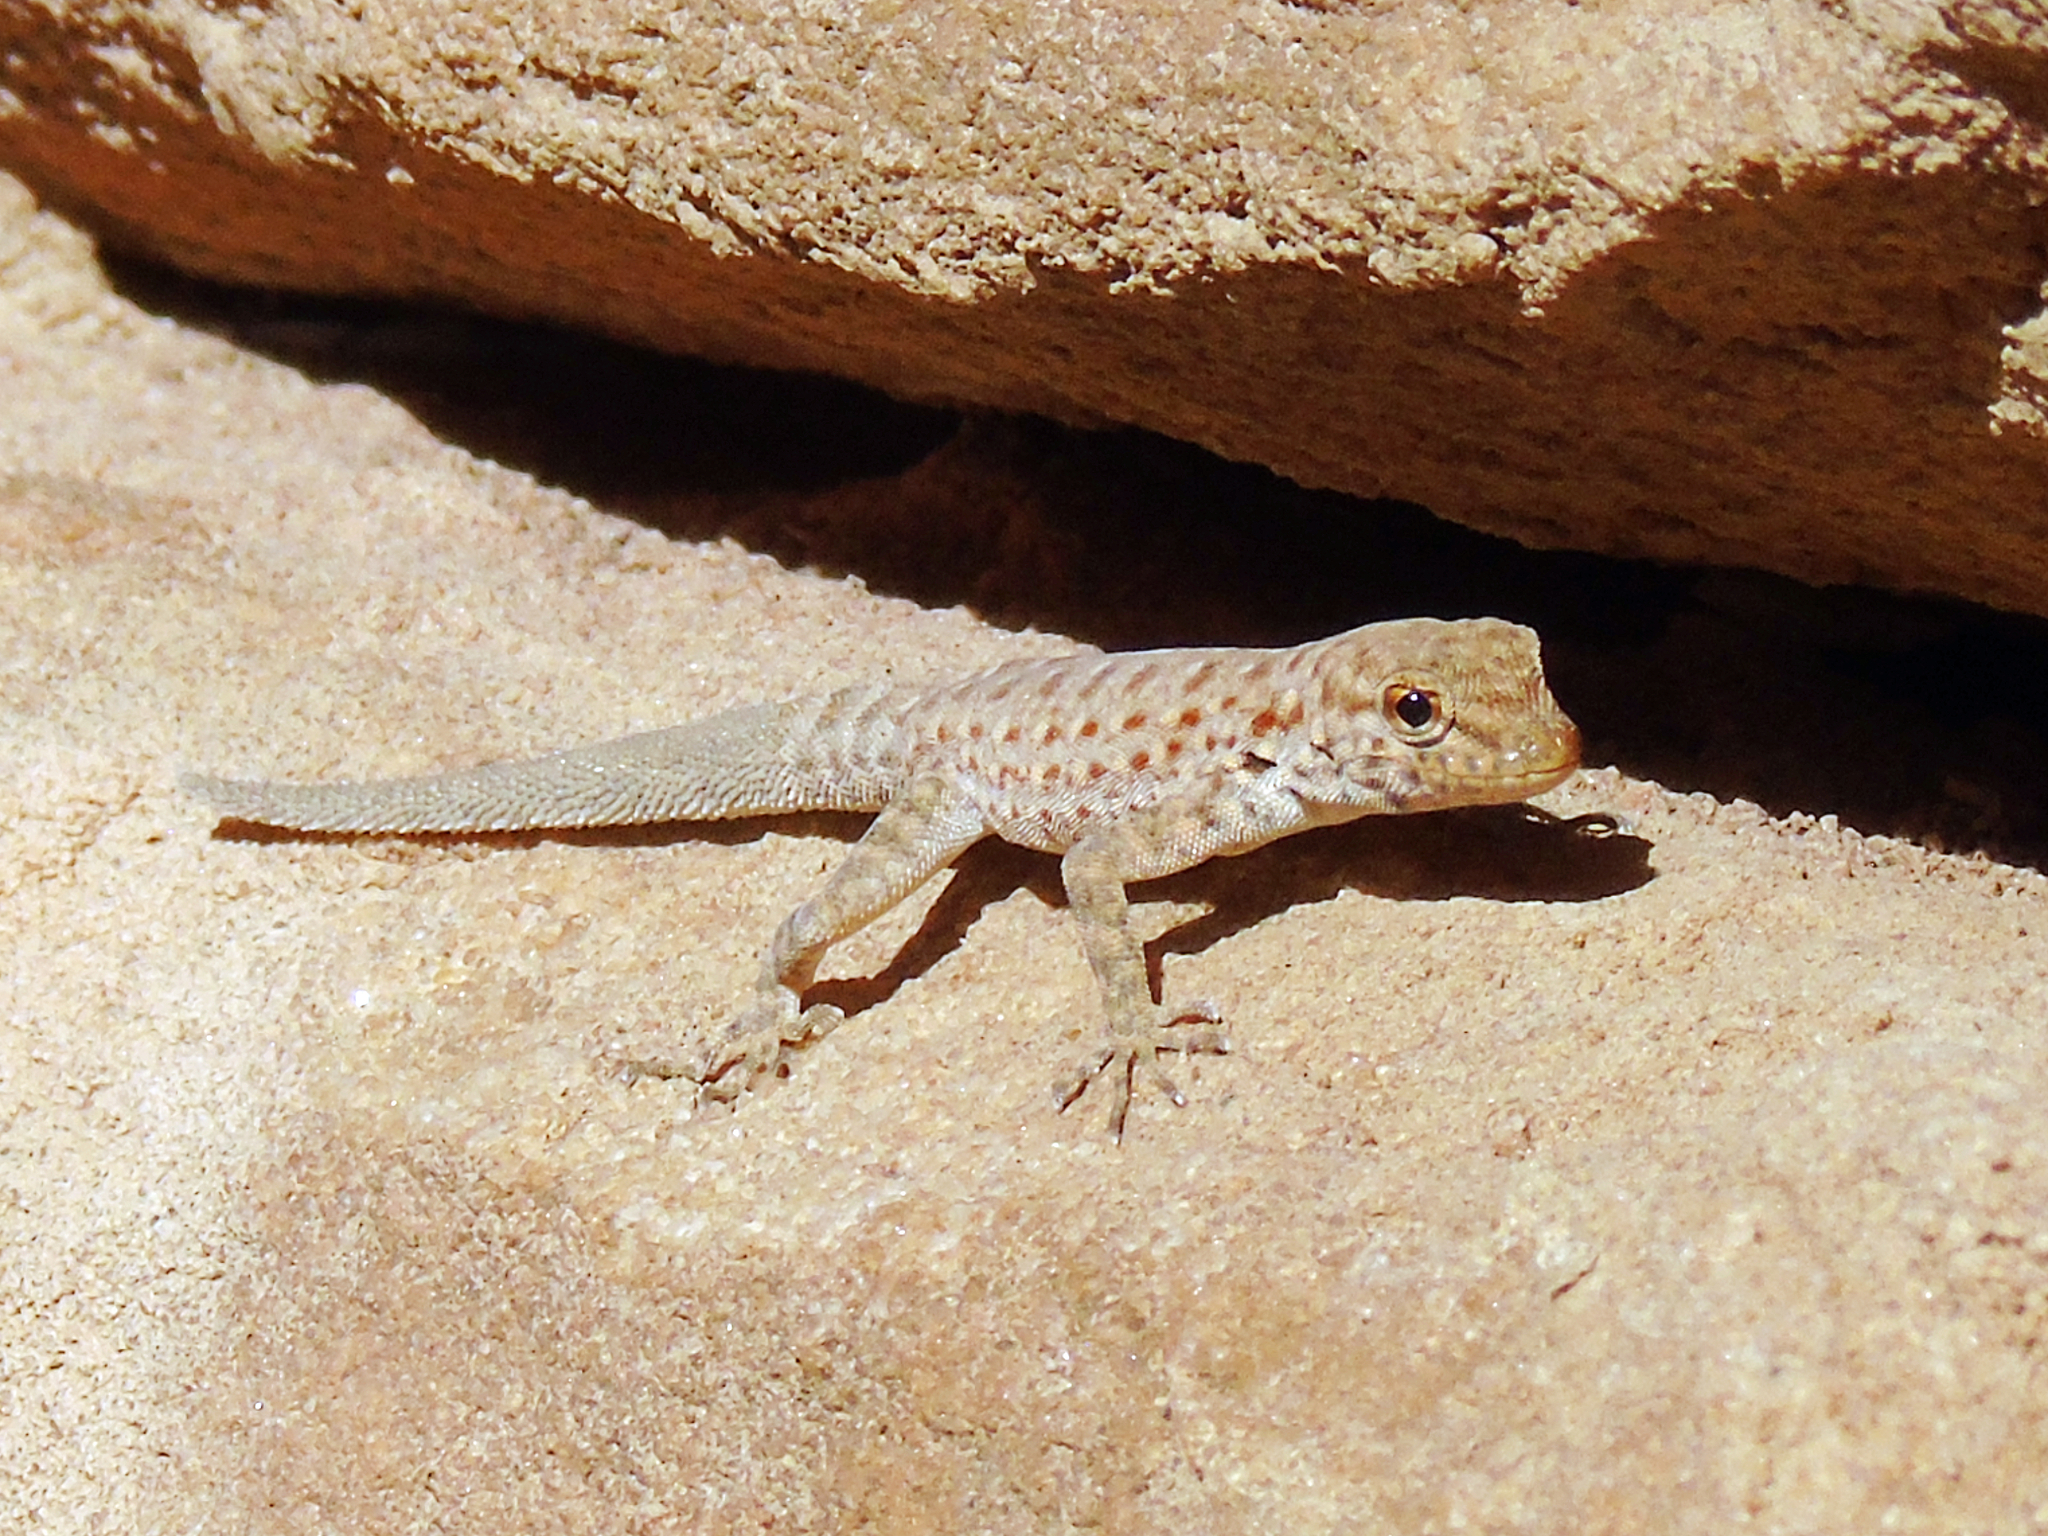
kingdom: Animalia
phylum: Chordata
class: Squamata
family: Sphaerodactylidae
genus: Pristurus
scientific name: Pristurus rupestris
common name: Blanford’s semaphore gecko
